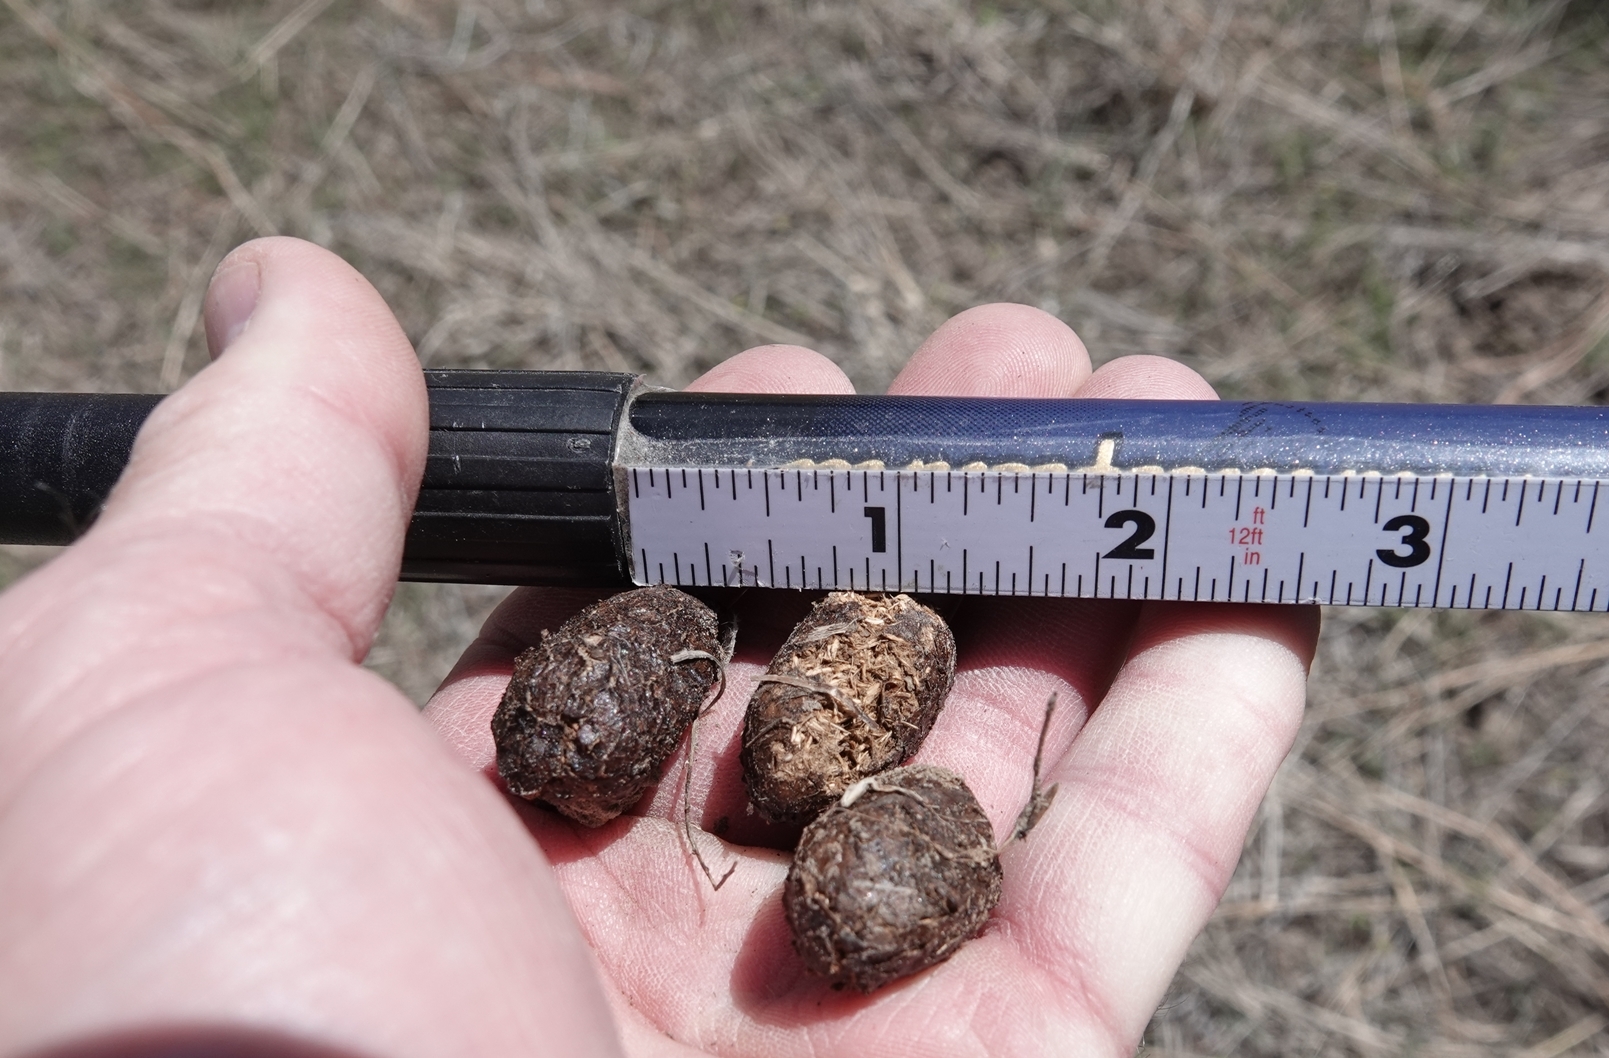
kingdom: Animalia
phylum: Chordata
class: Mammalia
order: Artiodactyla
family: Cervidae
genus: Alces
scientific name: Alces alces
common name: Moose
